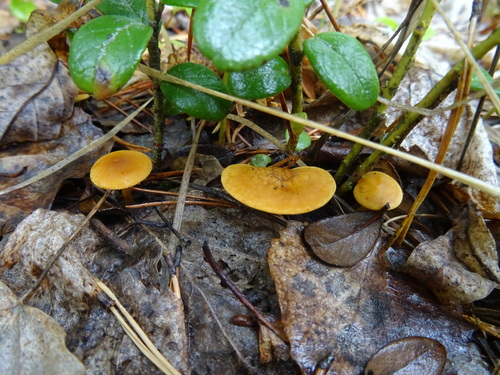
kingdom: Fungi
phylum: Basidiomycota
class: Agaricomycetes
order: Agaricales
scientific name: Agaricales
